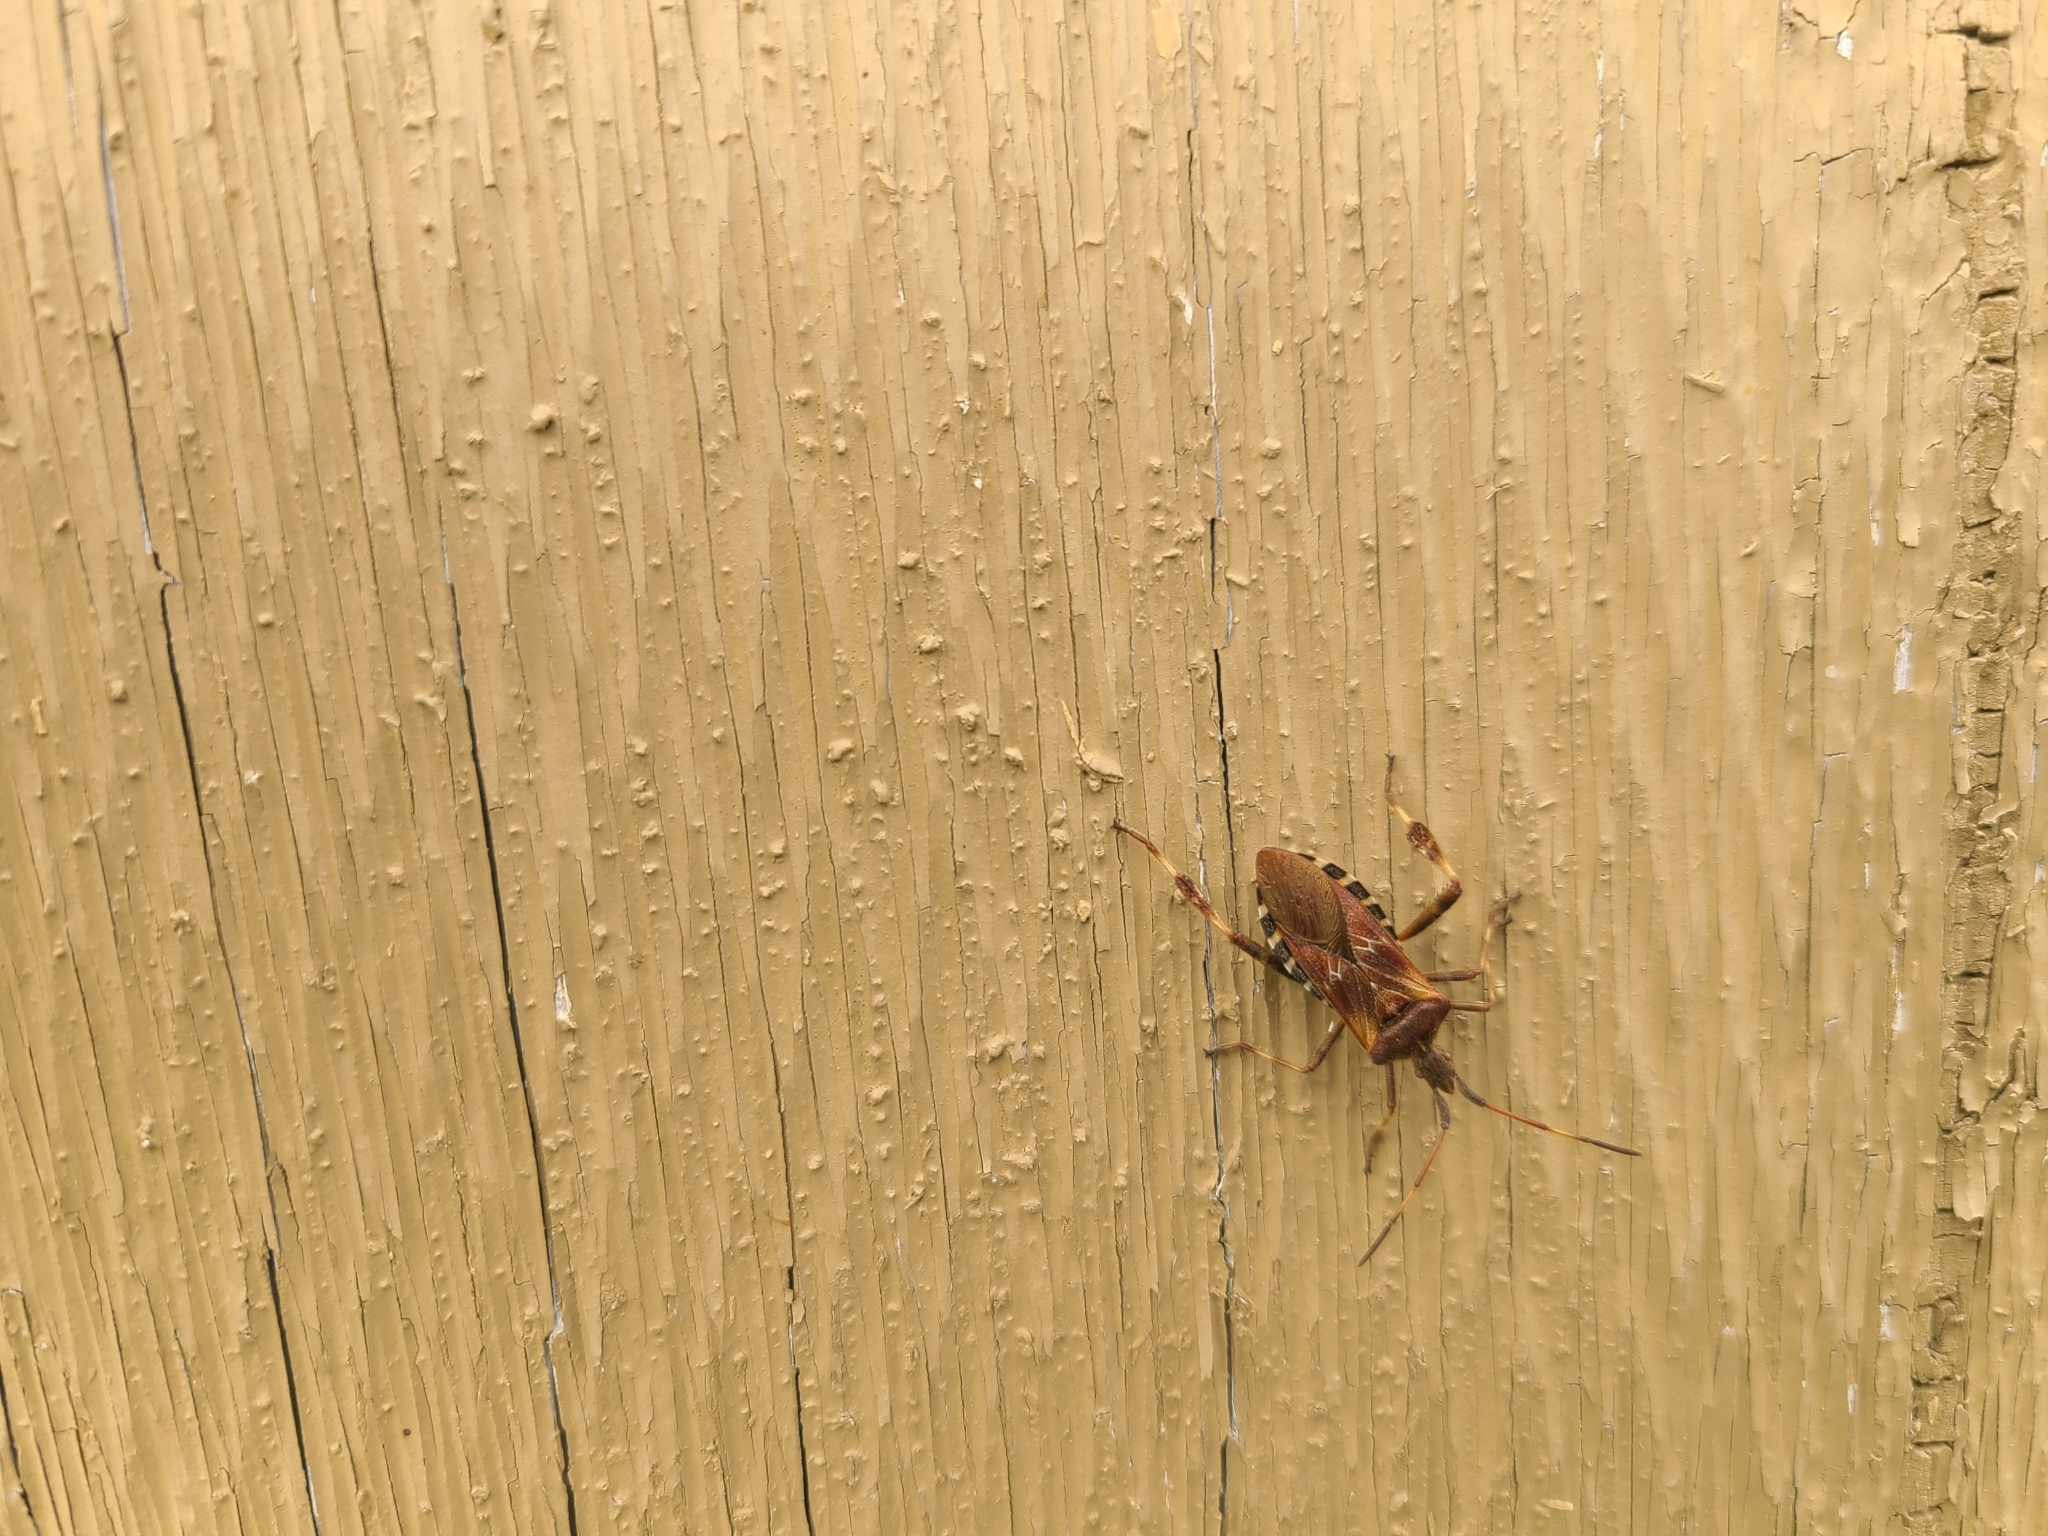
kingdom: Animalia
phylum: Arthropoda
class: Insecta
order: Hemiptera
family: Coreidae
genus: Leptoglossus
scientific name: Leptoglossus occidentalis
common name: Western conifer-seed bug
